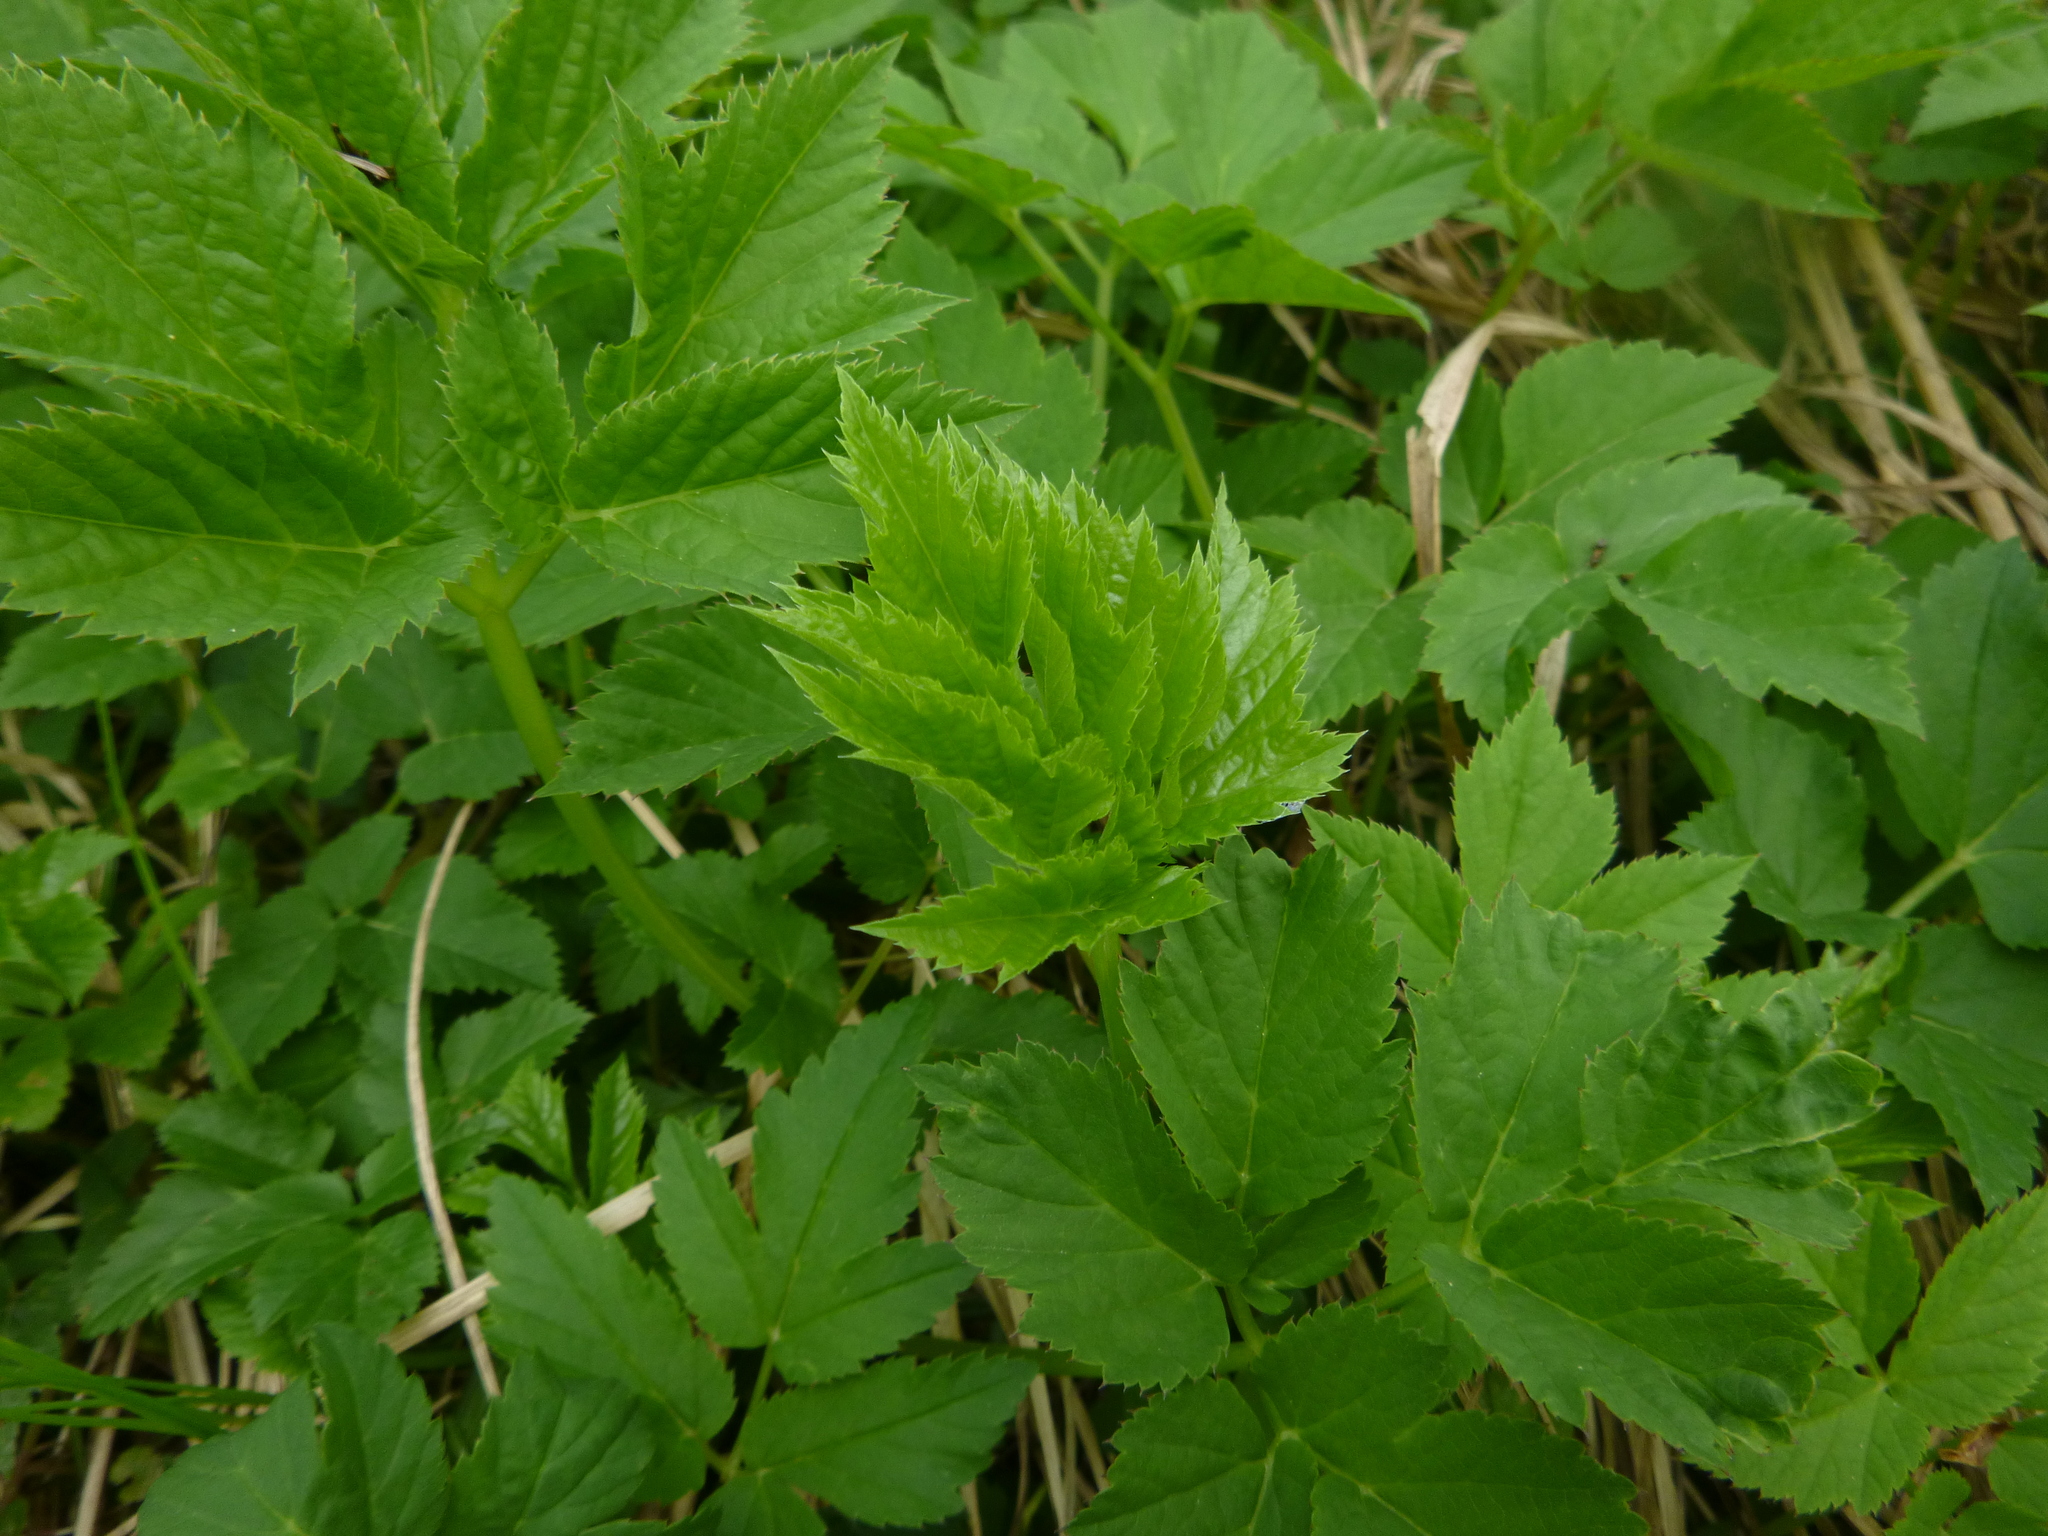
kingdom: Plantae
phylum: Tracheophyta
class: Magnoliopsida
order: Apiales
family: Apiaceae
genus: Aegopodium
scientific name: Aegopodium podagraria
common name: Ground-elder
